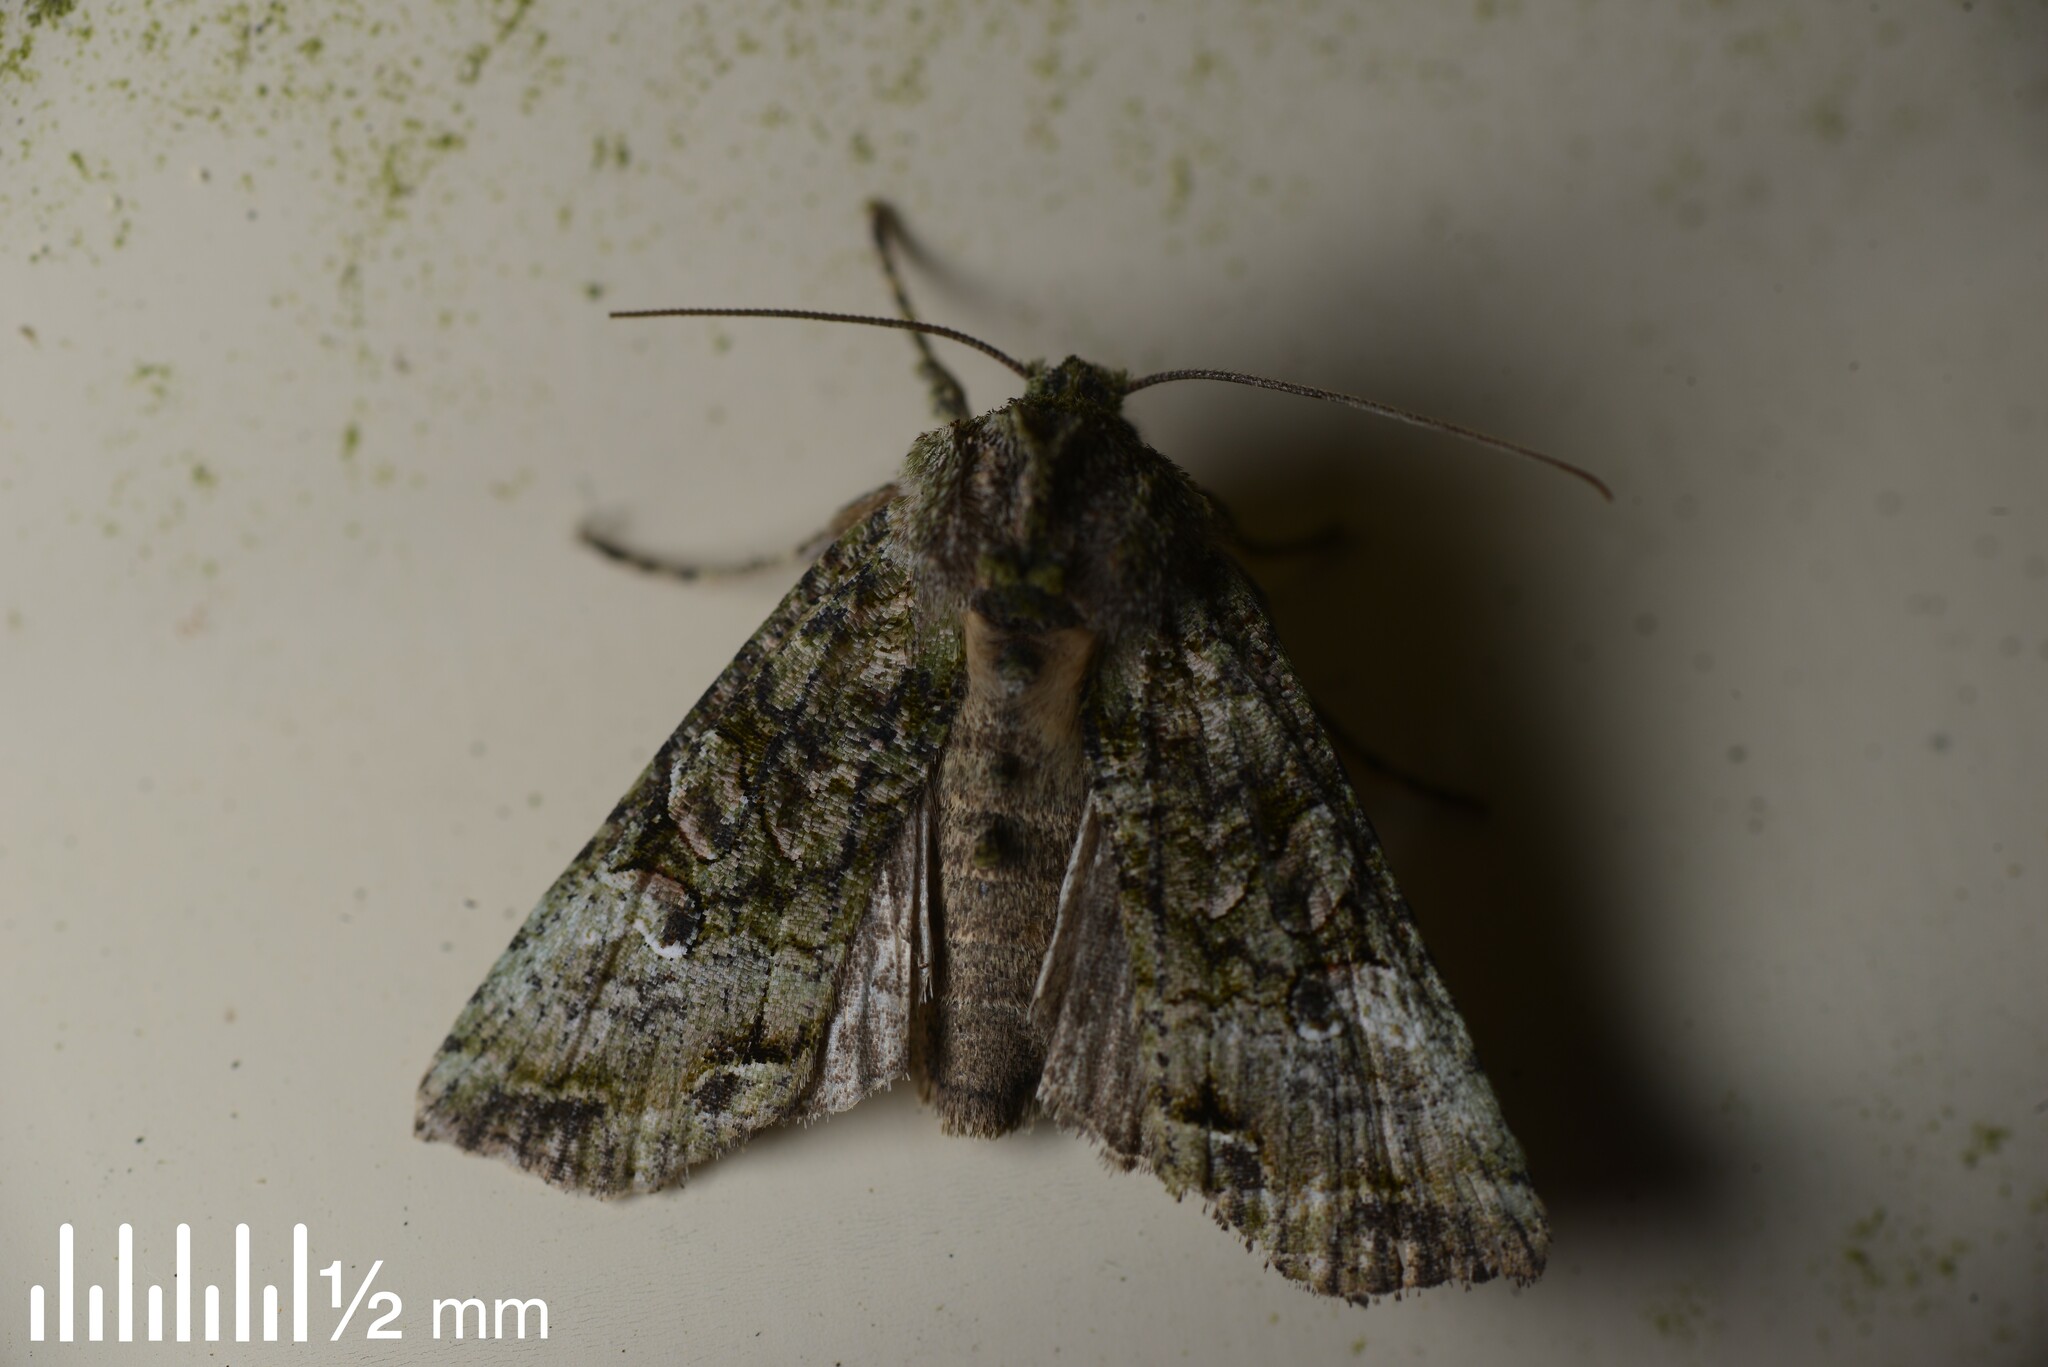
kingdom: Animalia
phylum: Arthropoda
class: Insecta
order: Lepidoptera
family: Noctuidae
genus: Meterana
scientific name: Meterana levis
